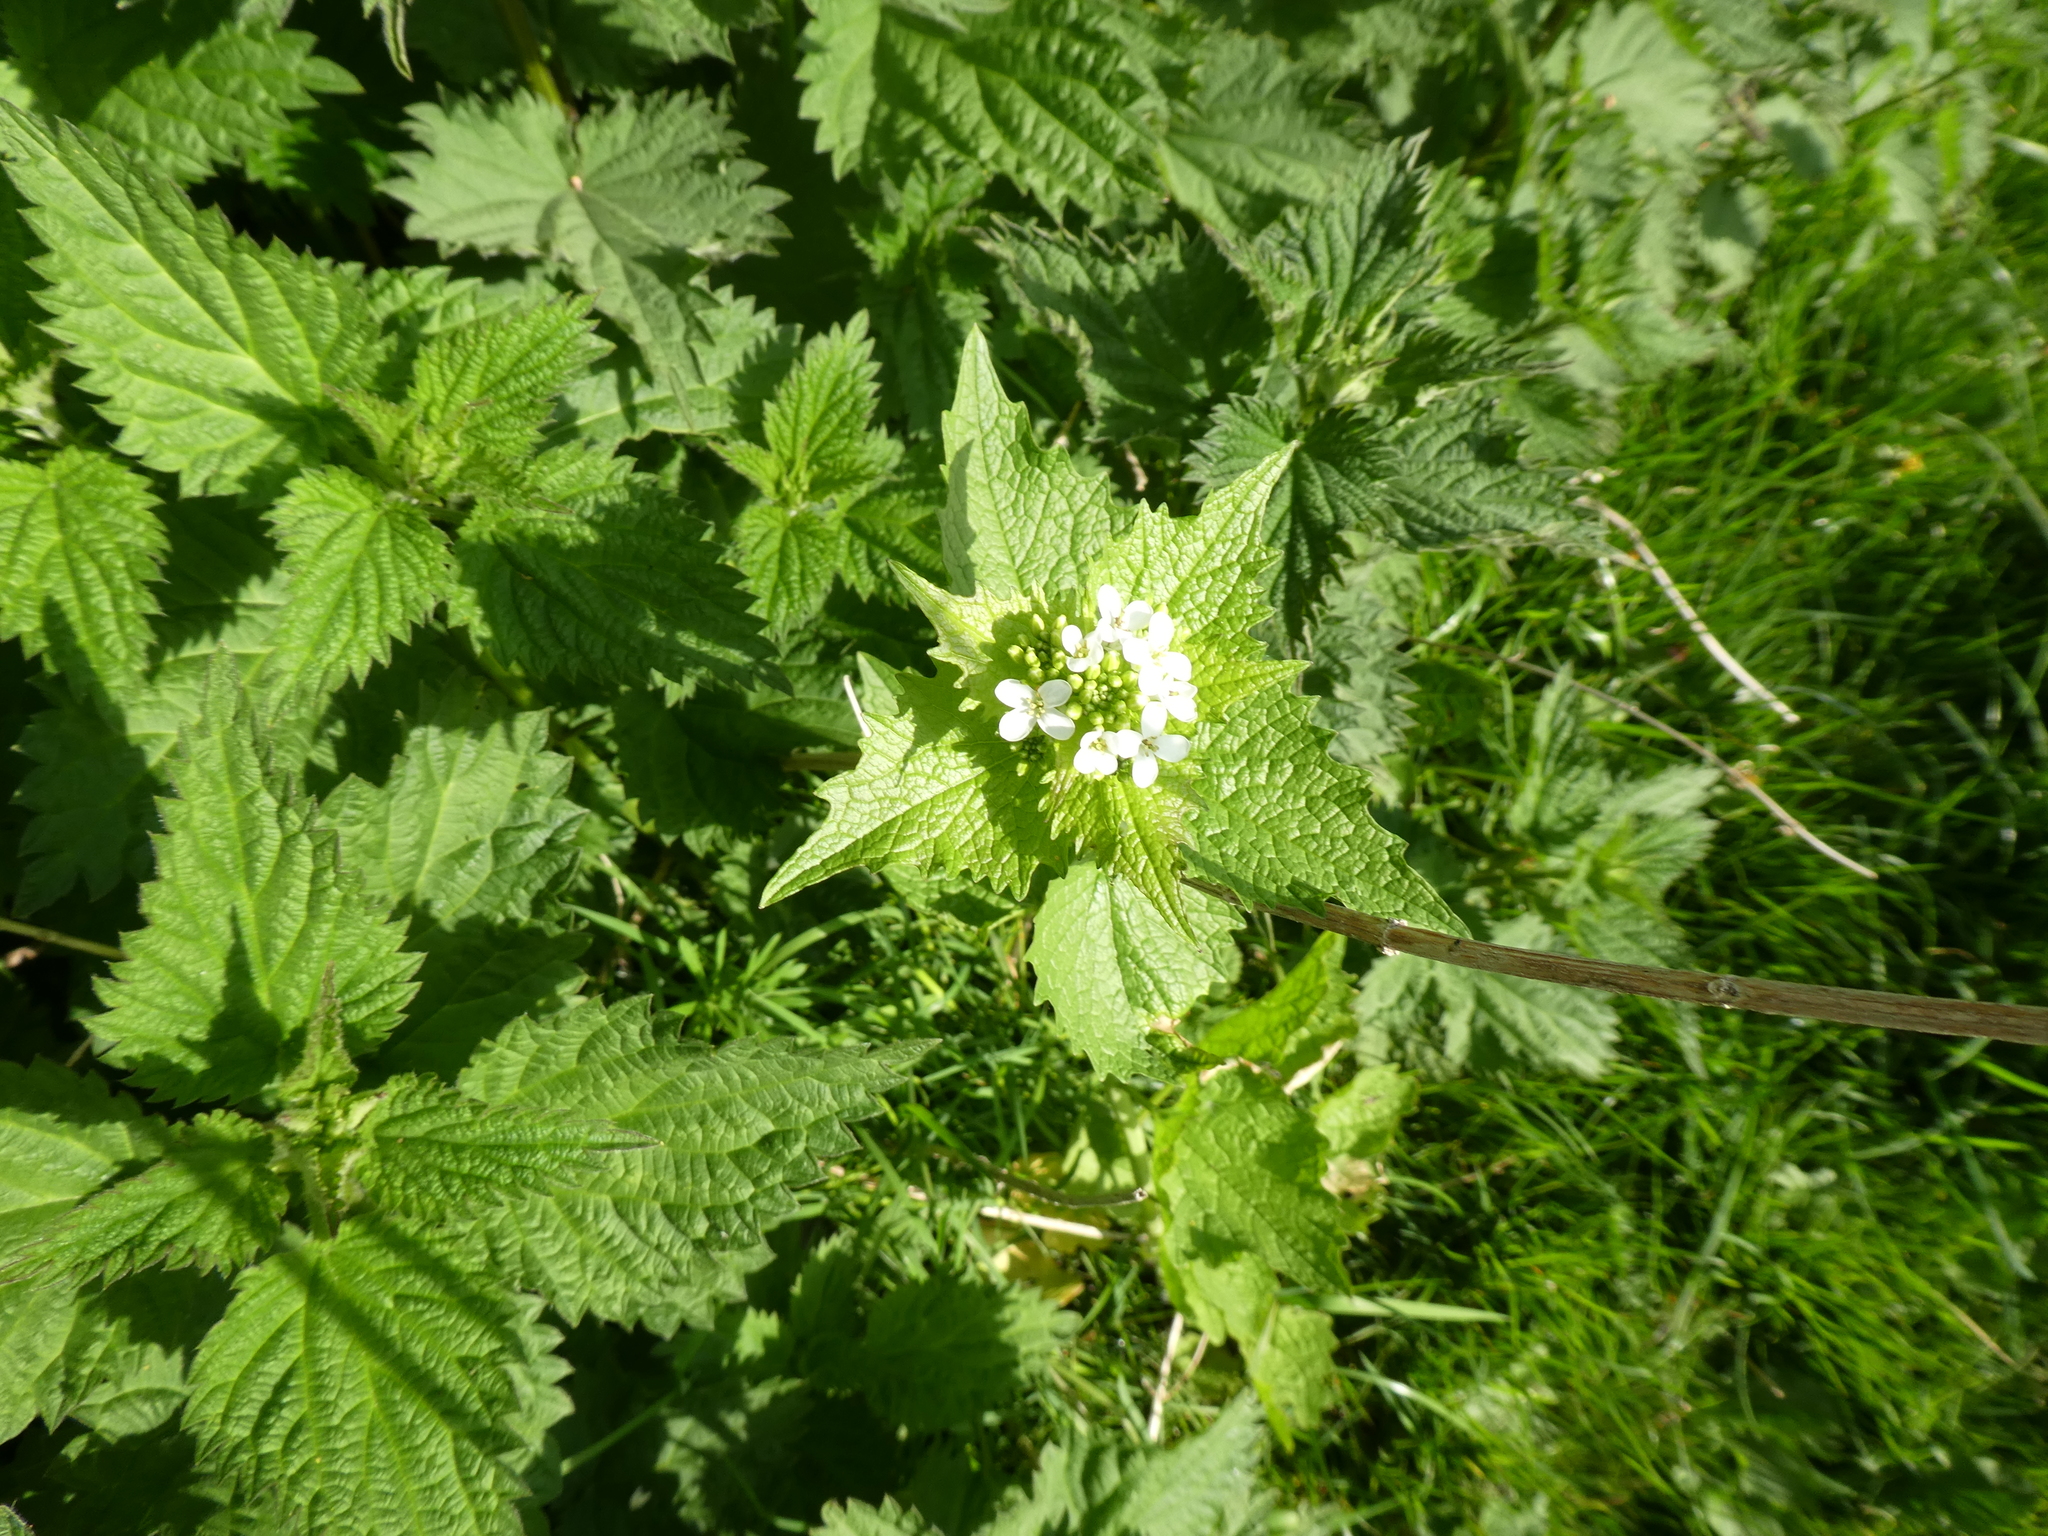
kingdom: Plantae
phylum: Tracheophyta
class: Magnoliopsida
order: Brassicales
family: Brassicaceae
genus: Alliaria
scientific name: Alliaria petiolata
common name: Garlic mustard
